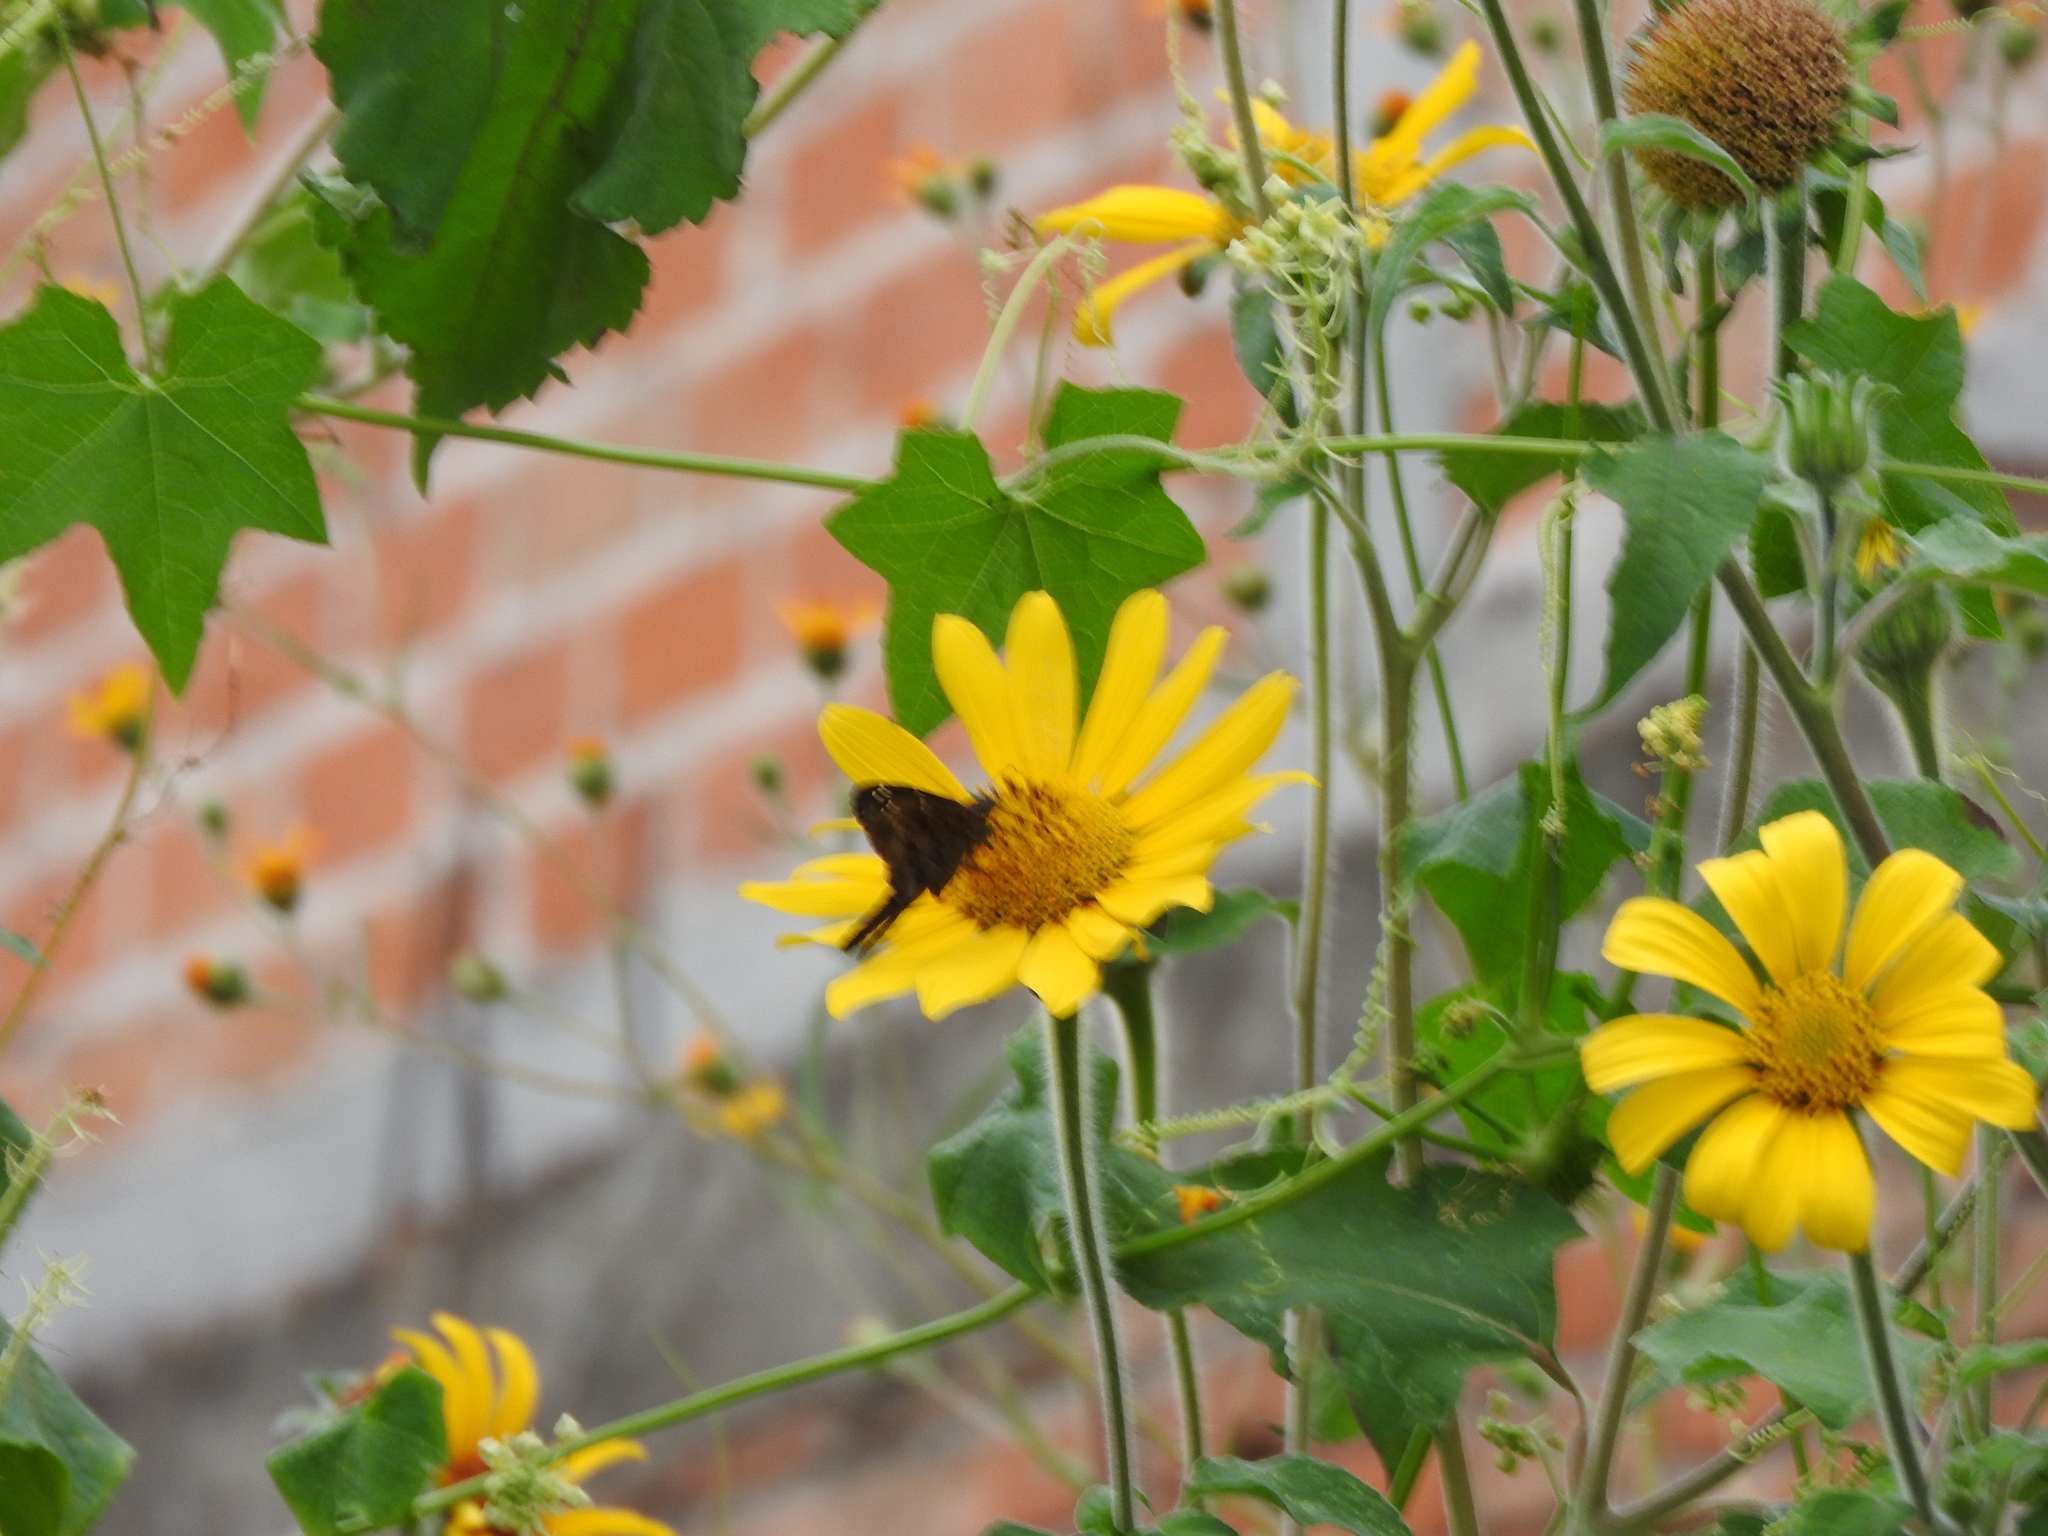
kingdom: Plantae
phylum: Tracheophyta
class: Magnoliopsida
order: Asterales
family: Asteraceae
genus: Tithonia
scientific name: Tithonia tubaeformis
